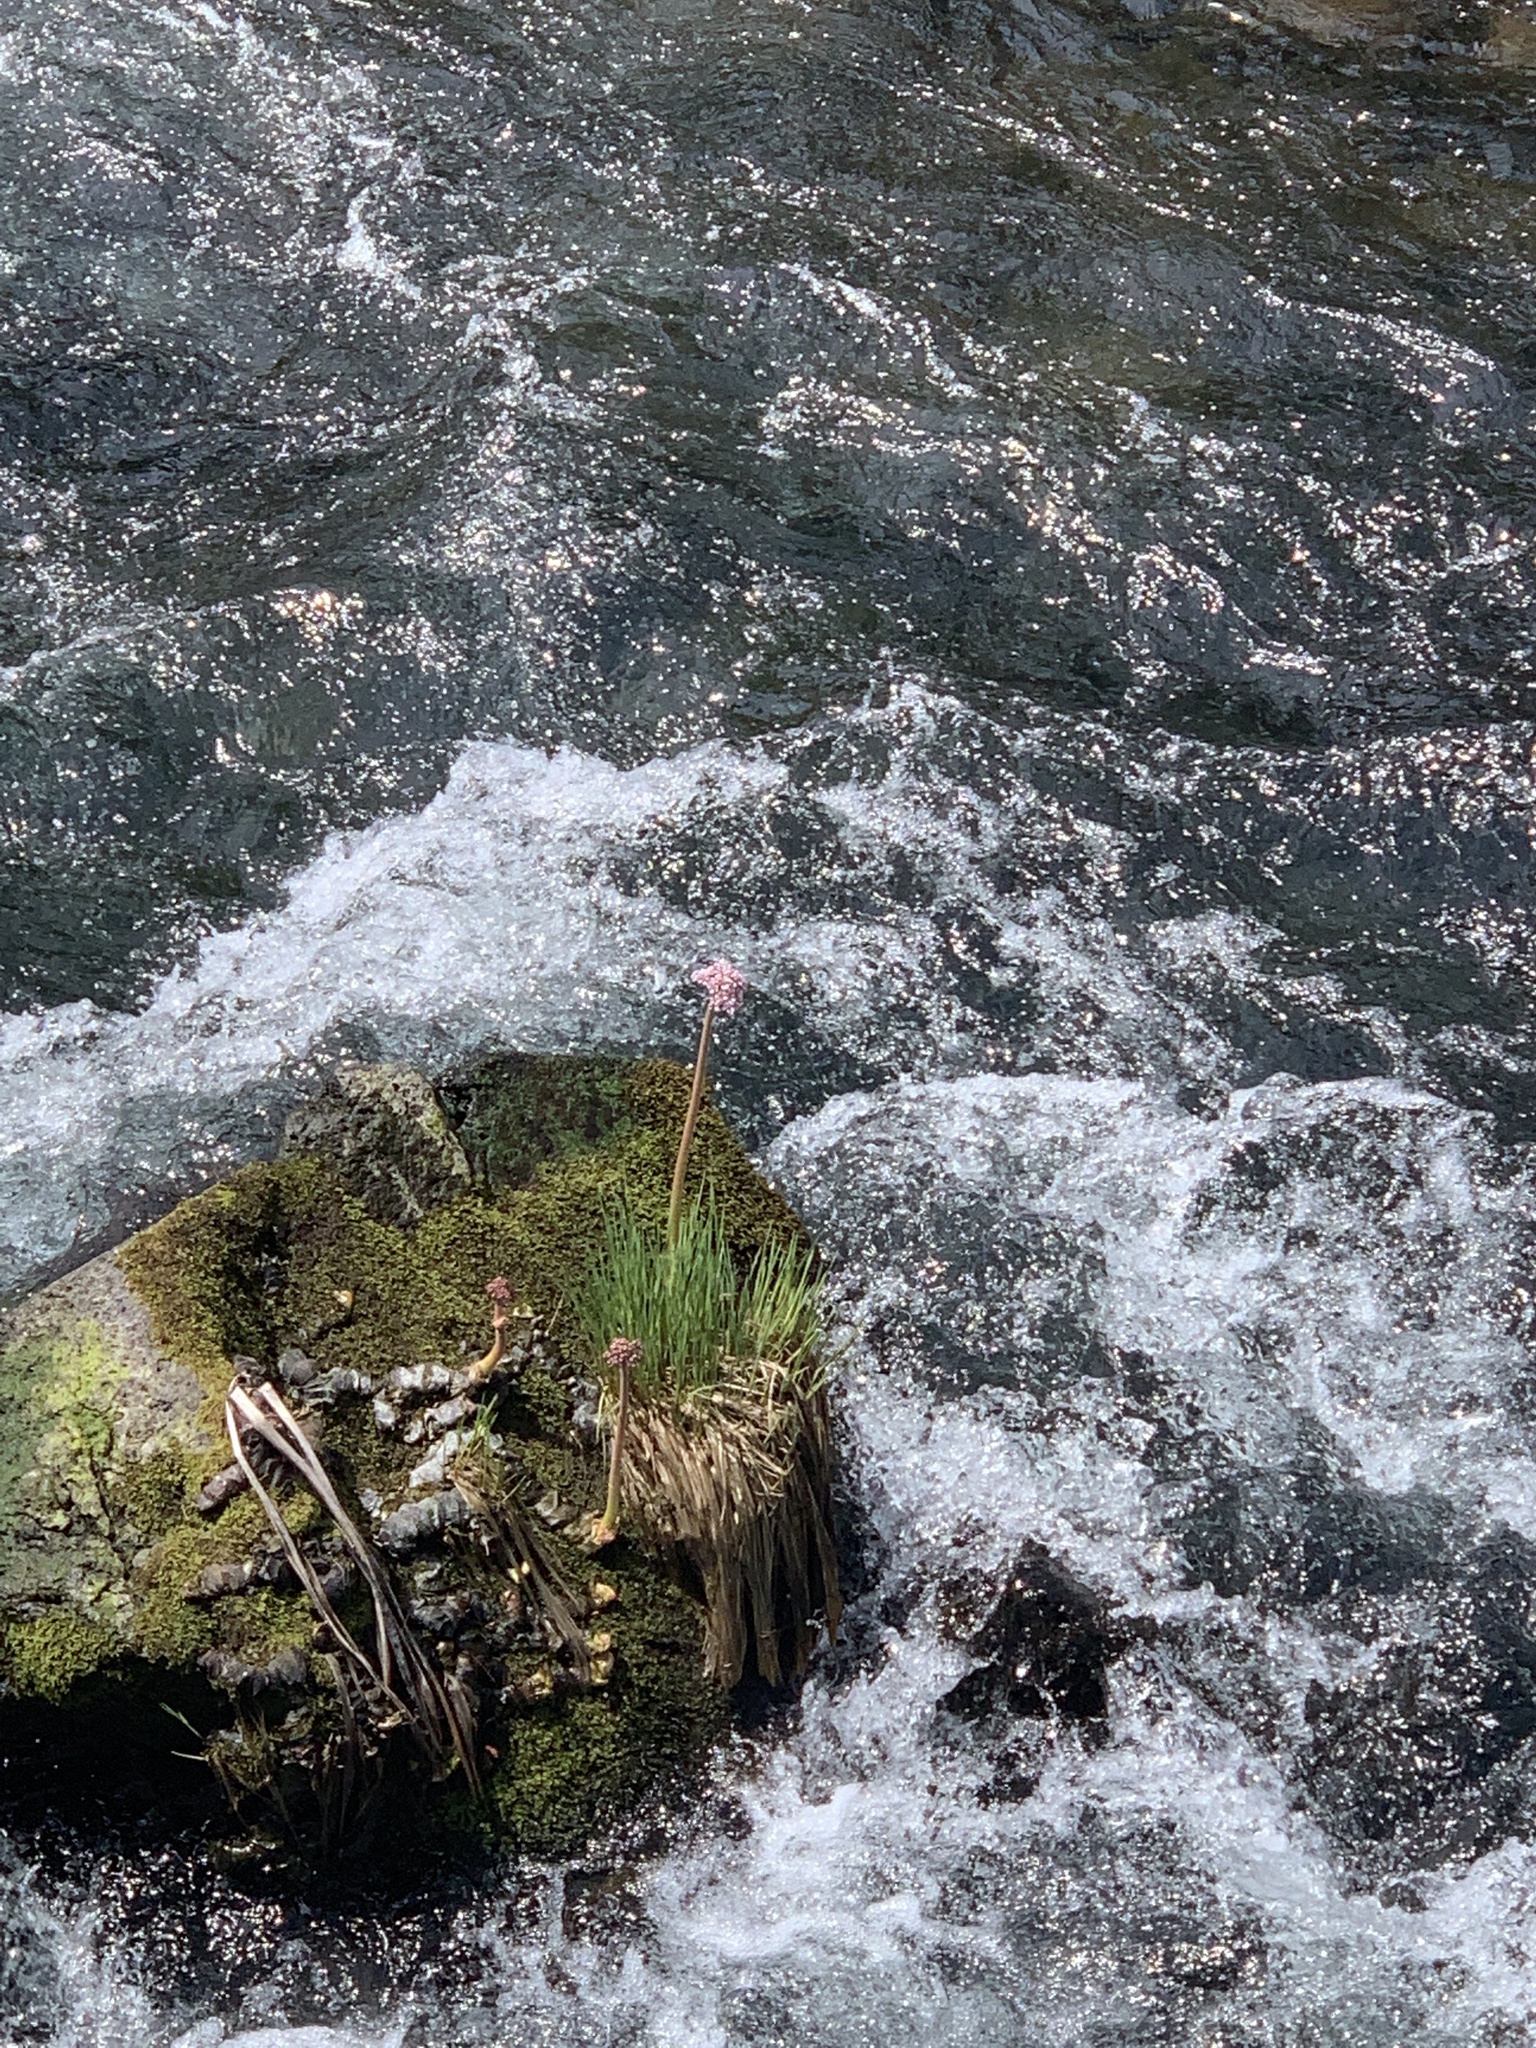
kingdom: Plantae
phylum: Tracheophyta
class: Magnoliopsida
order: Saxifragales
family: Saxifragaceae
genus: Darmera
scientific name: Darmera peltata
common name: Indian-rhubarb
